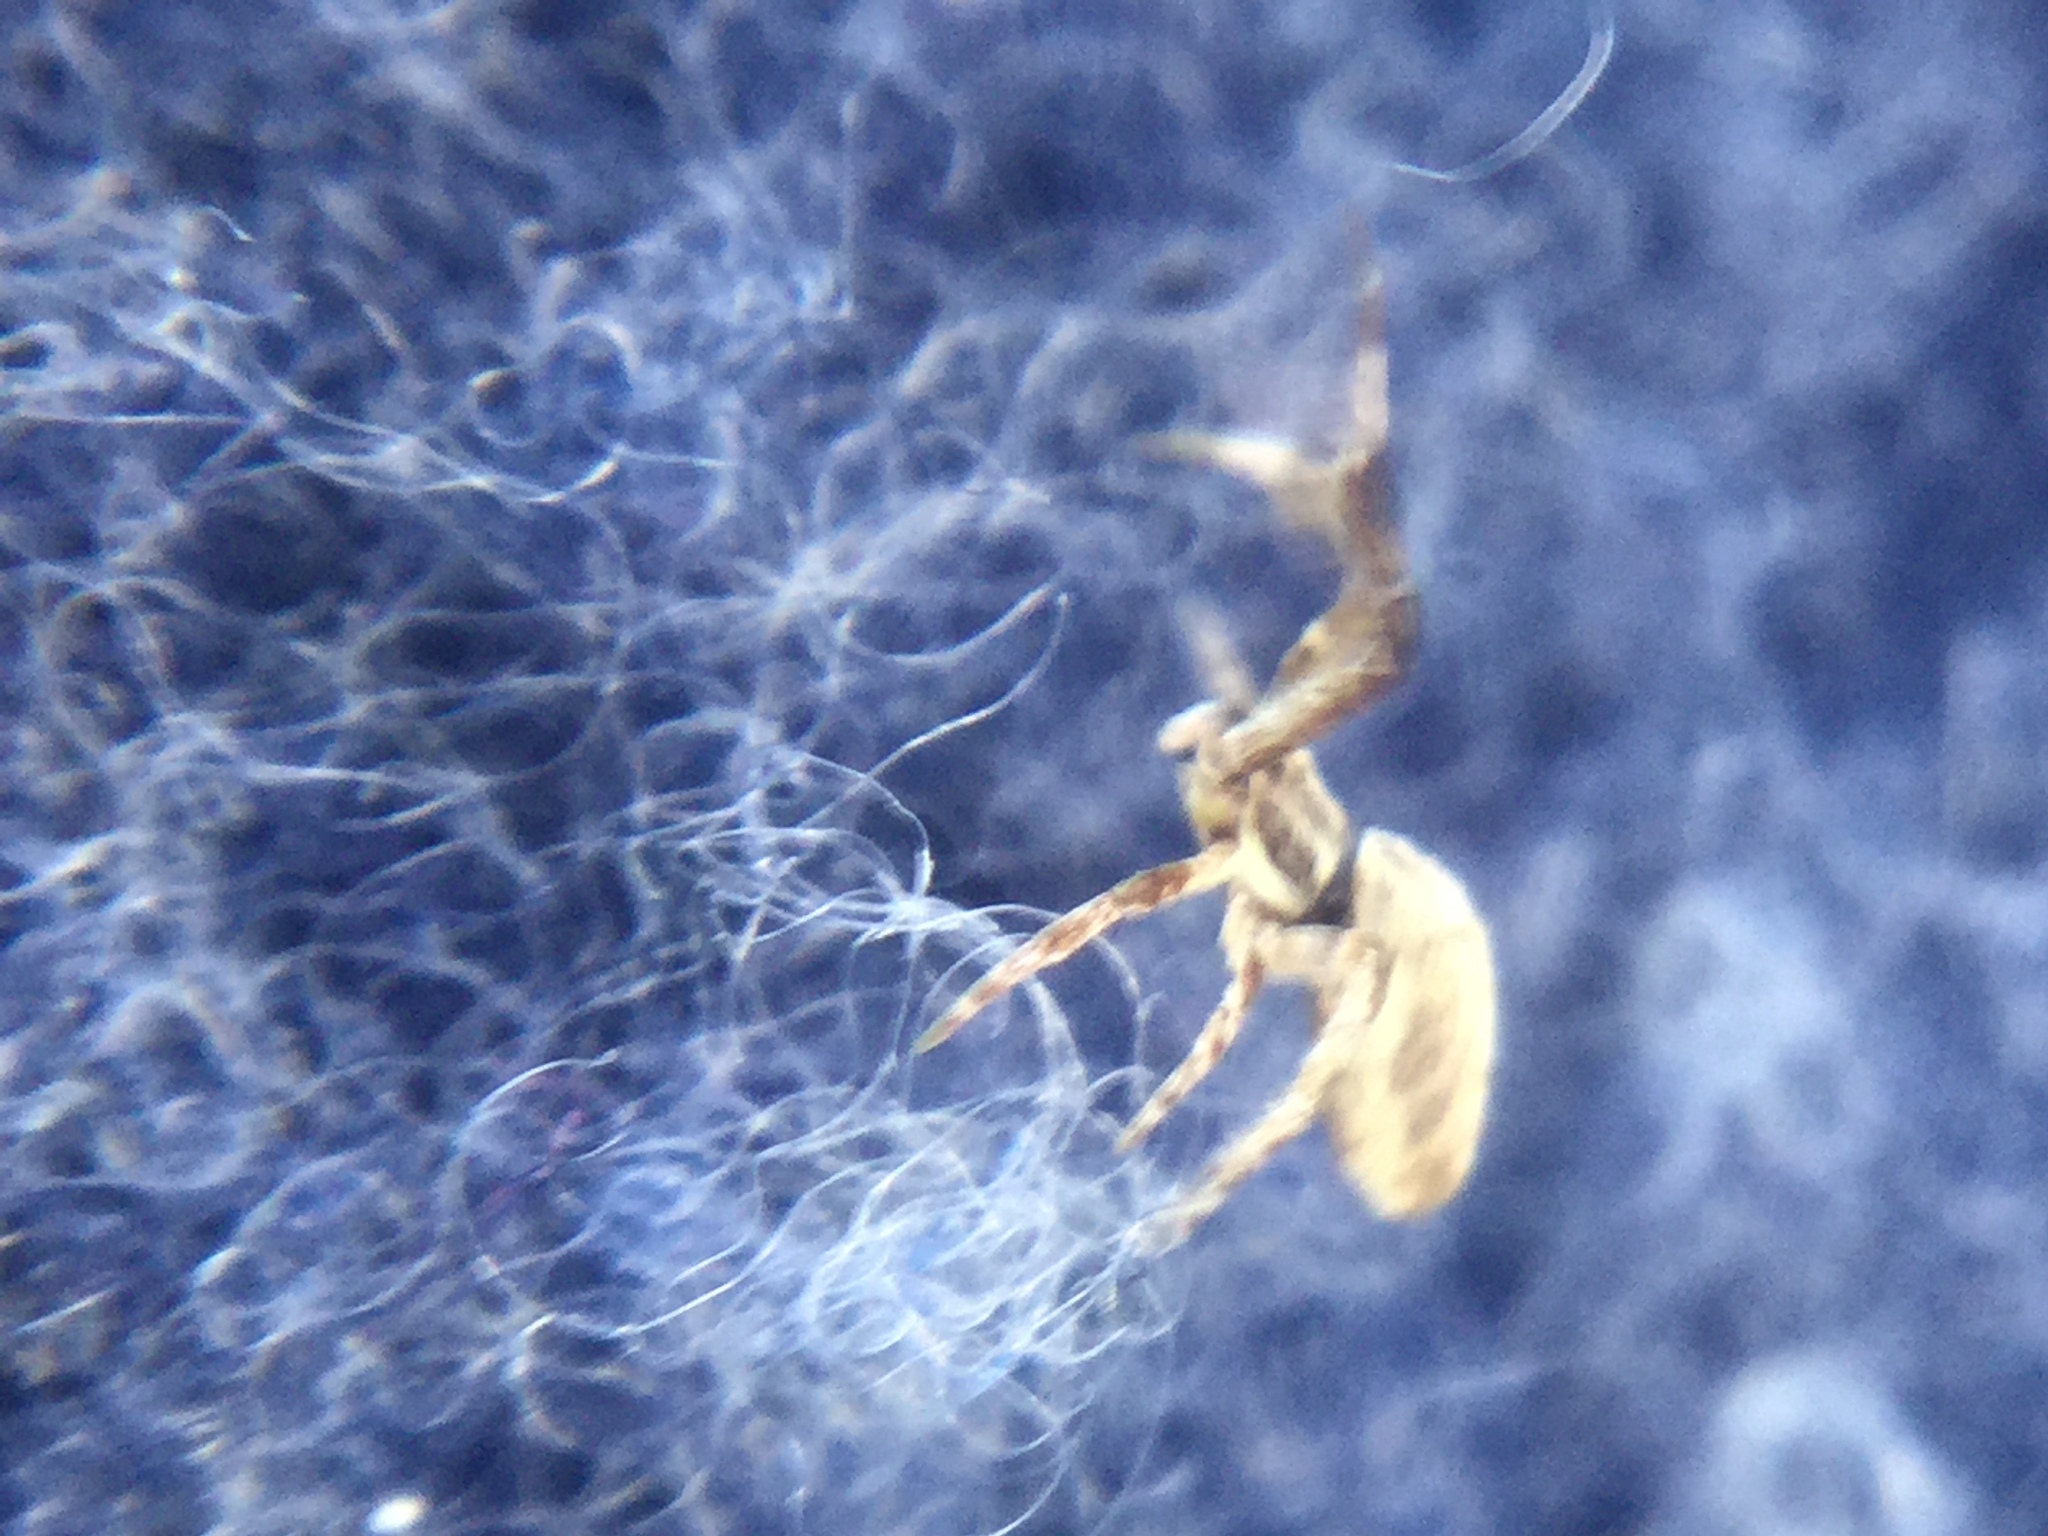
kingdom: Animalia
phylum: Arthropoda
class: Arachnida
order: Araneae
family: Uloboridae
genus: Uloborus
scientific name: Uloborus glomosus
